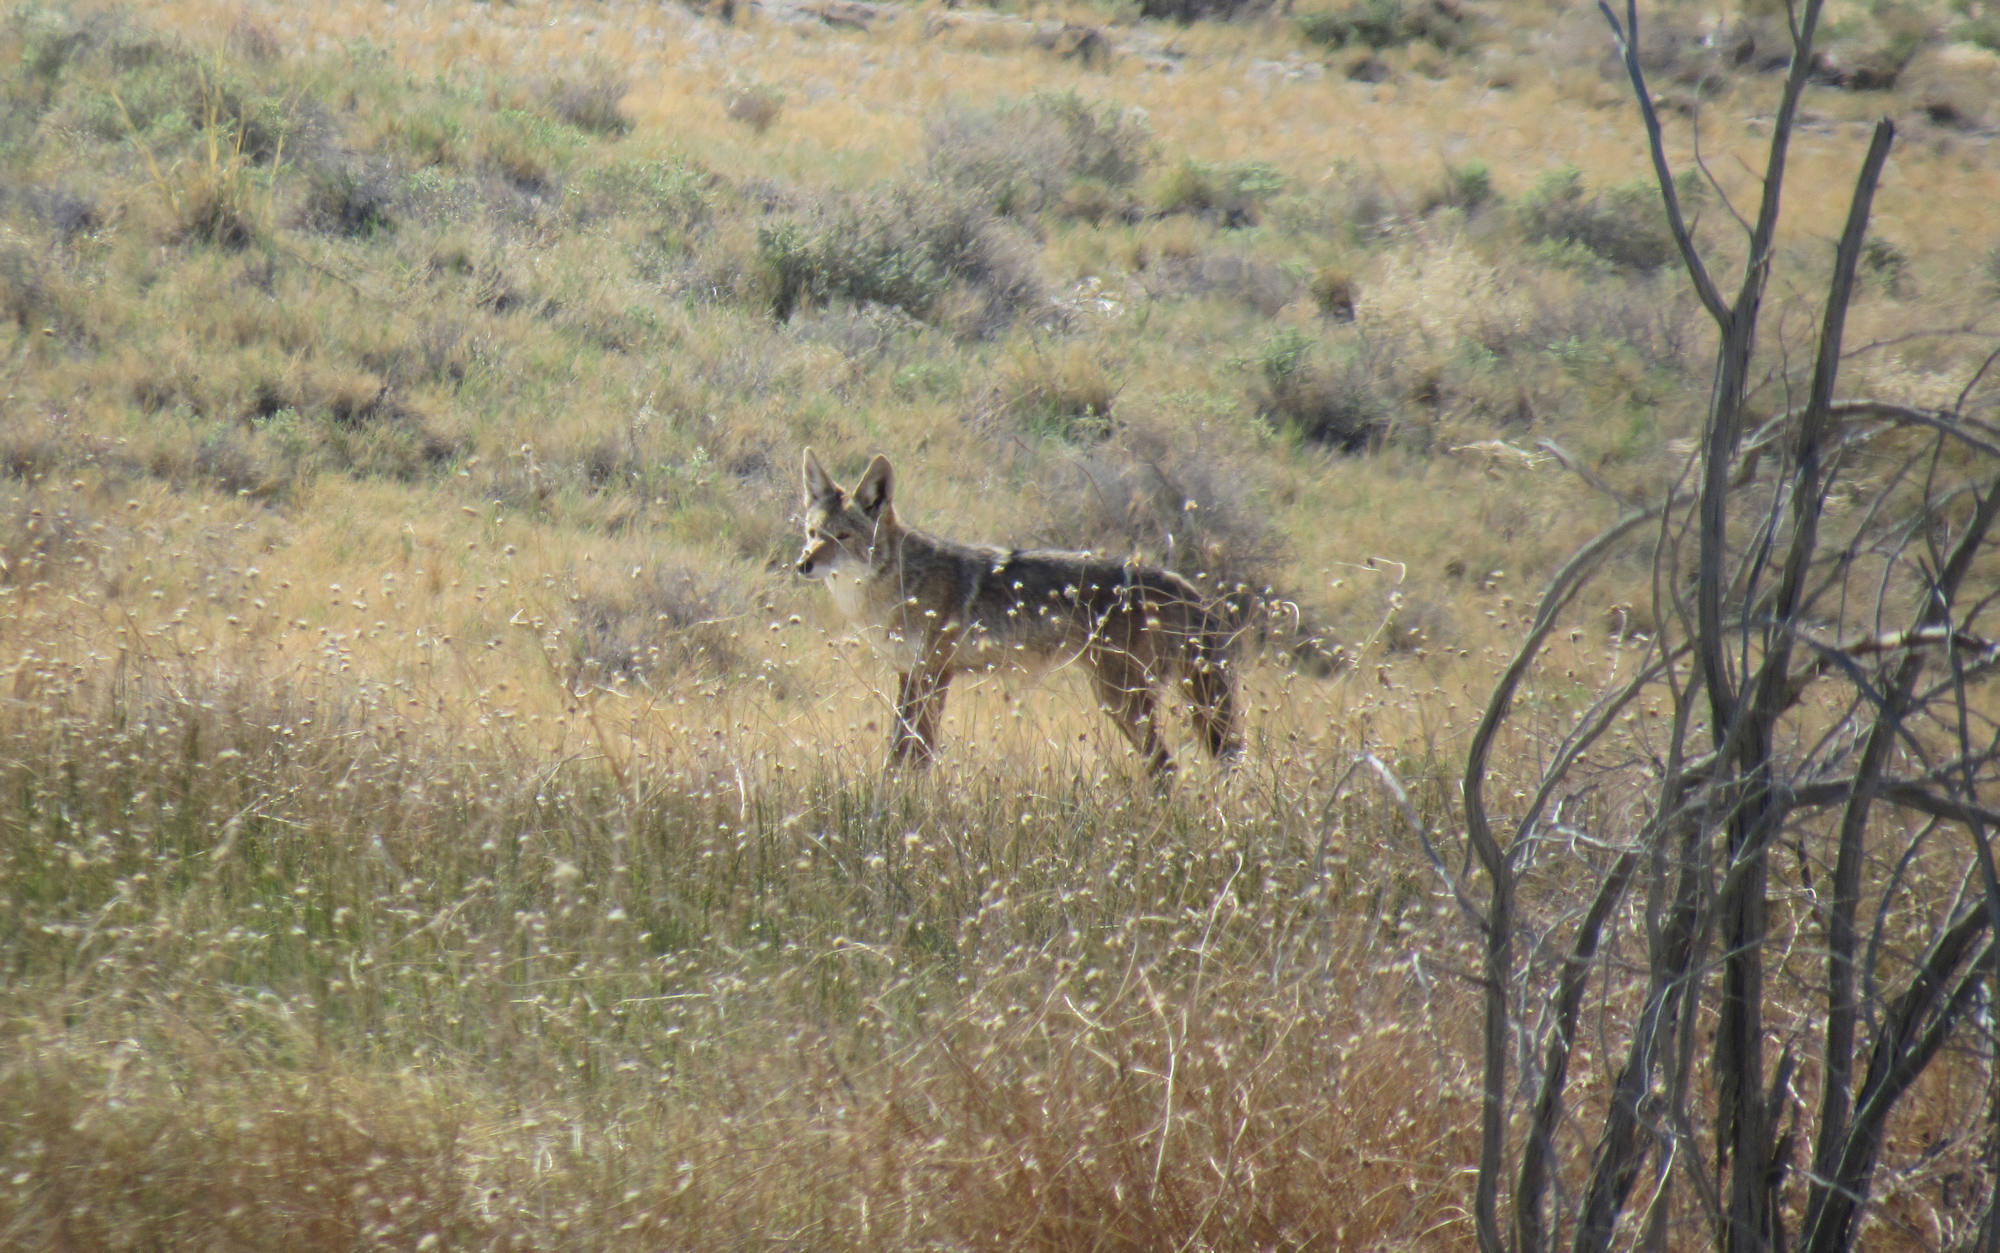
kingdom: Animalia
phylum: Chordata
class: Mammalia
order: Carnivora
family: Canidae
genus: Canis
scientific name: Canis latrans
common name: Coyote
